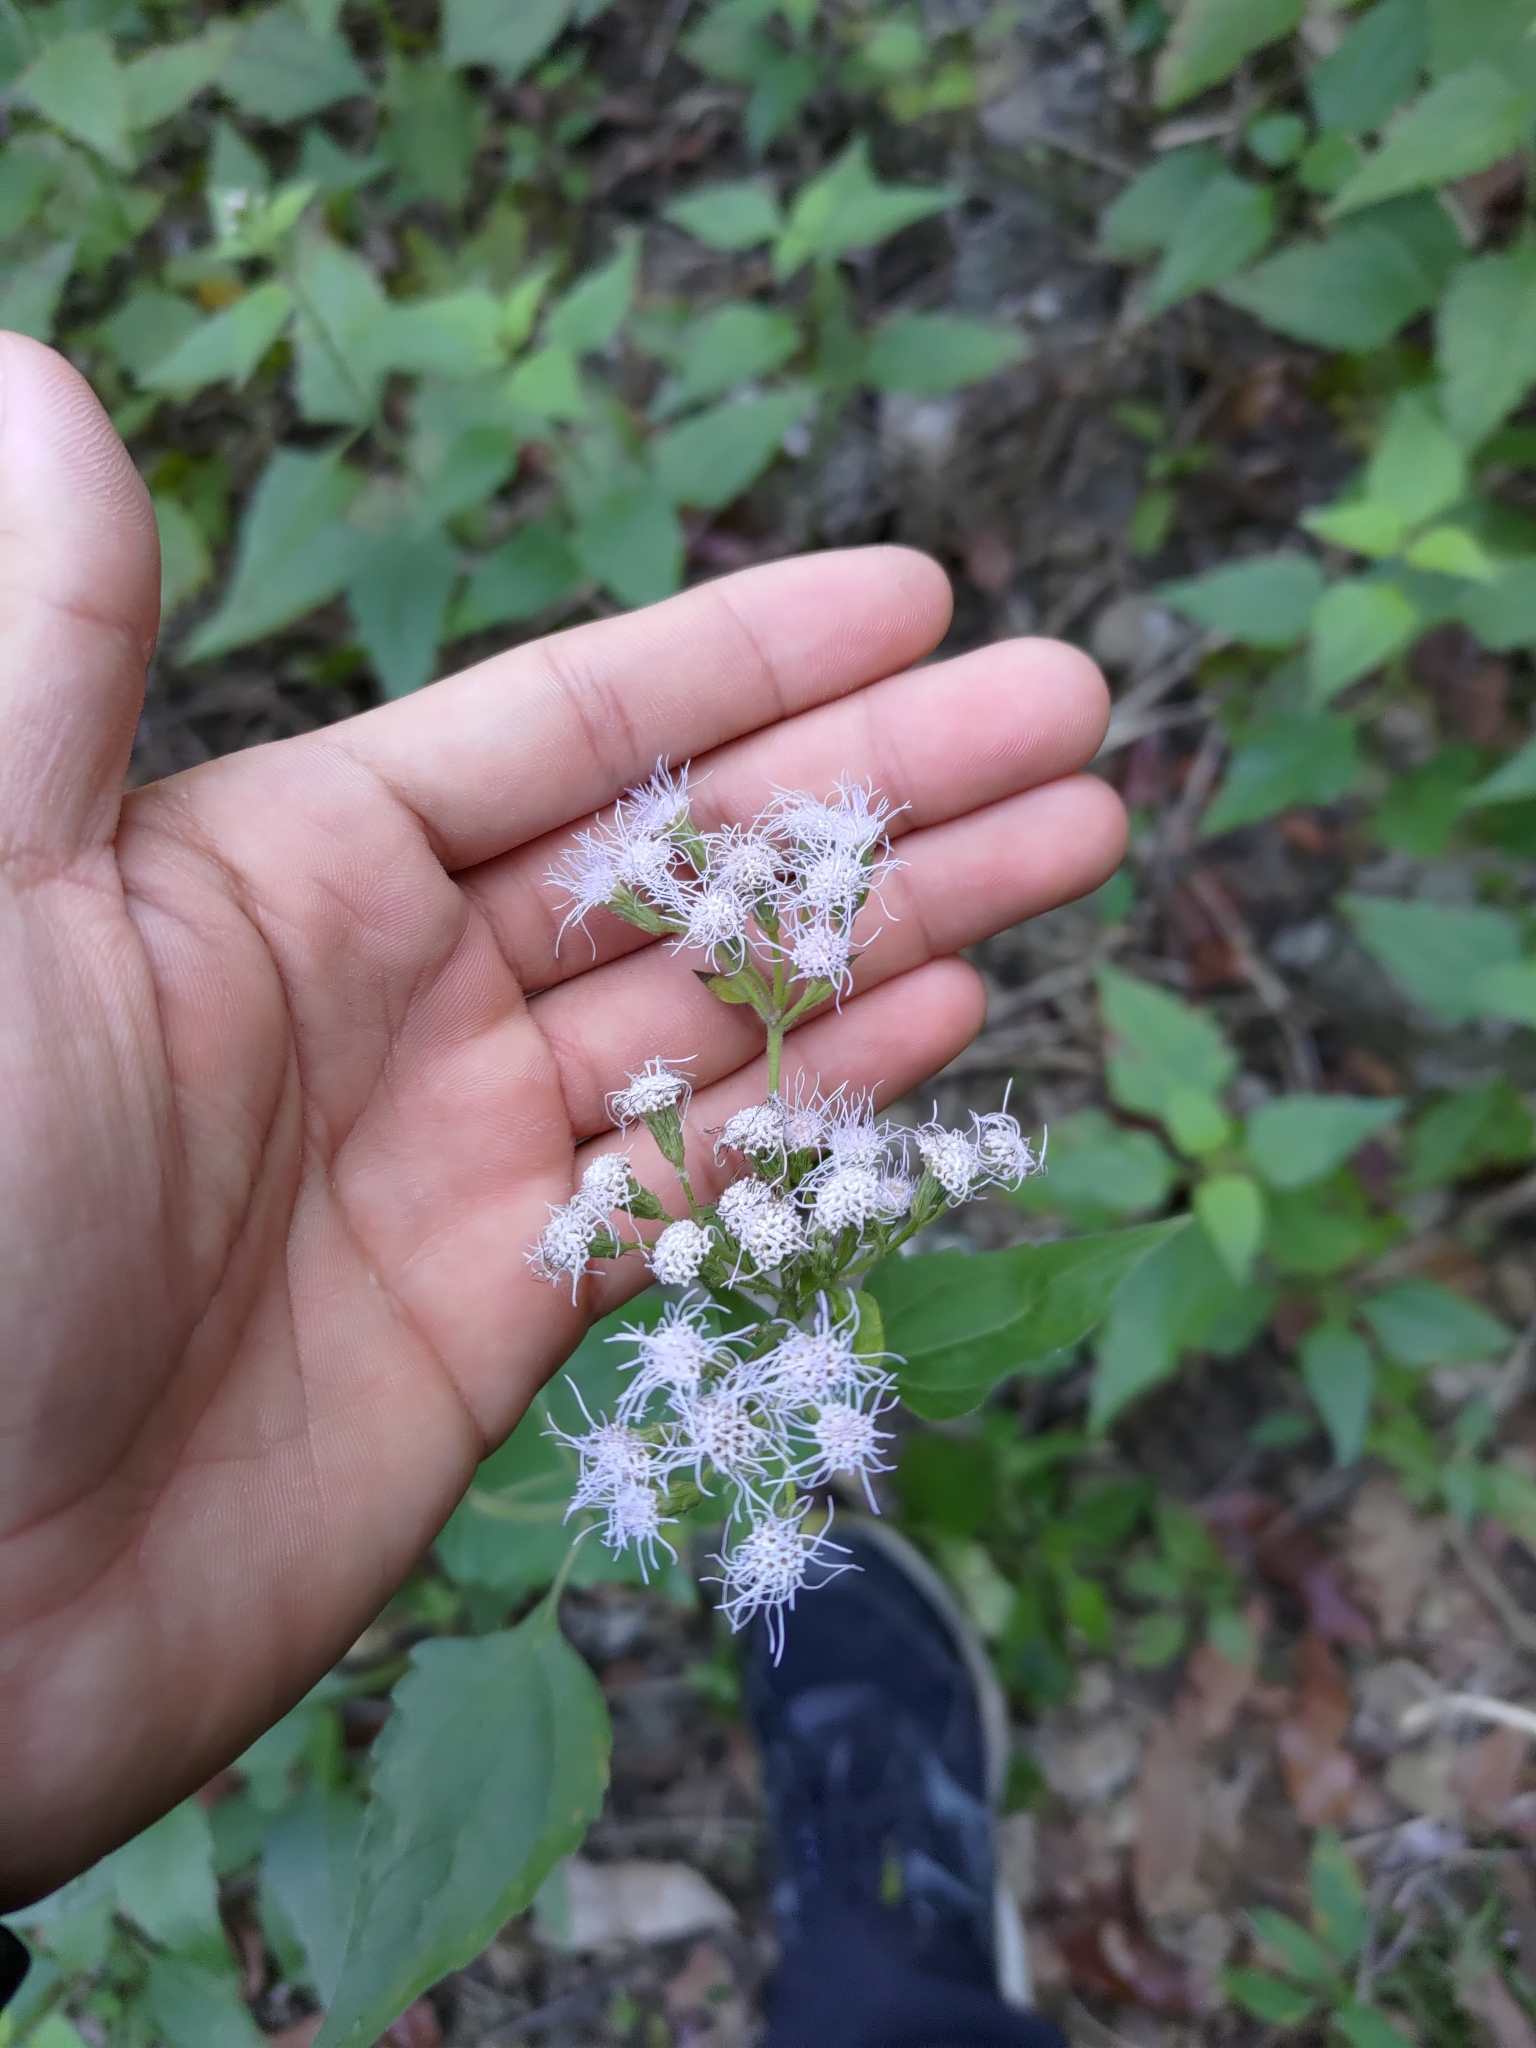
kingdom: Plantae
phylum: Tracheophyta
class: Magnoliopsida
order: Asterales
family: Asteraceae
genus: Chromolaena
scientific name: Chromolaena odorata
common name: Siamweed
